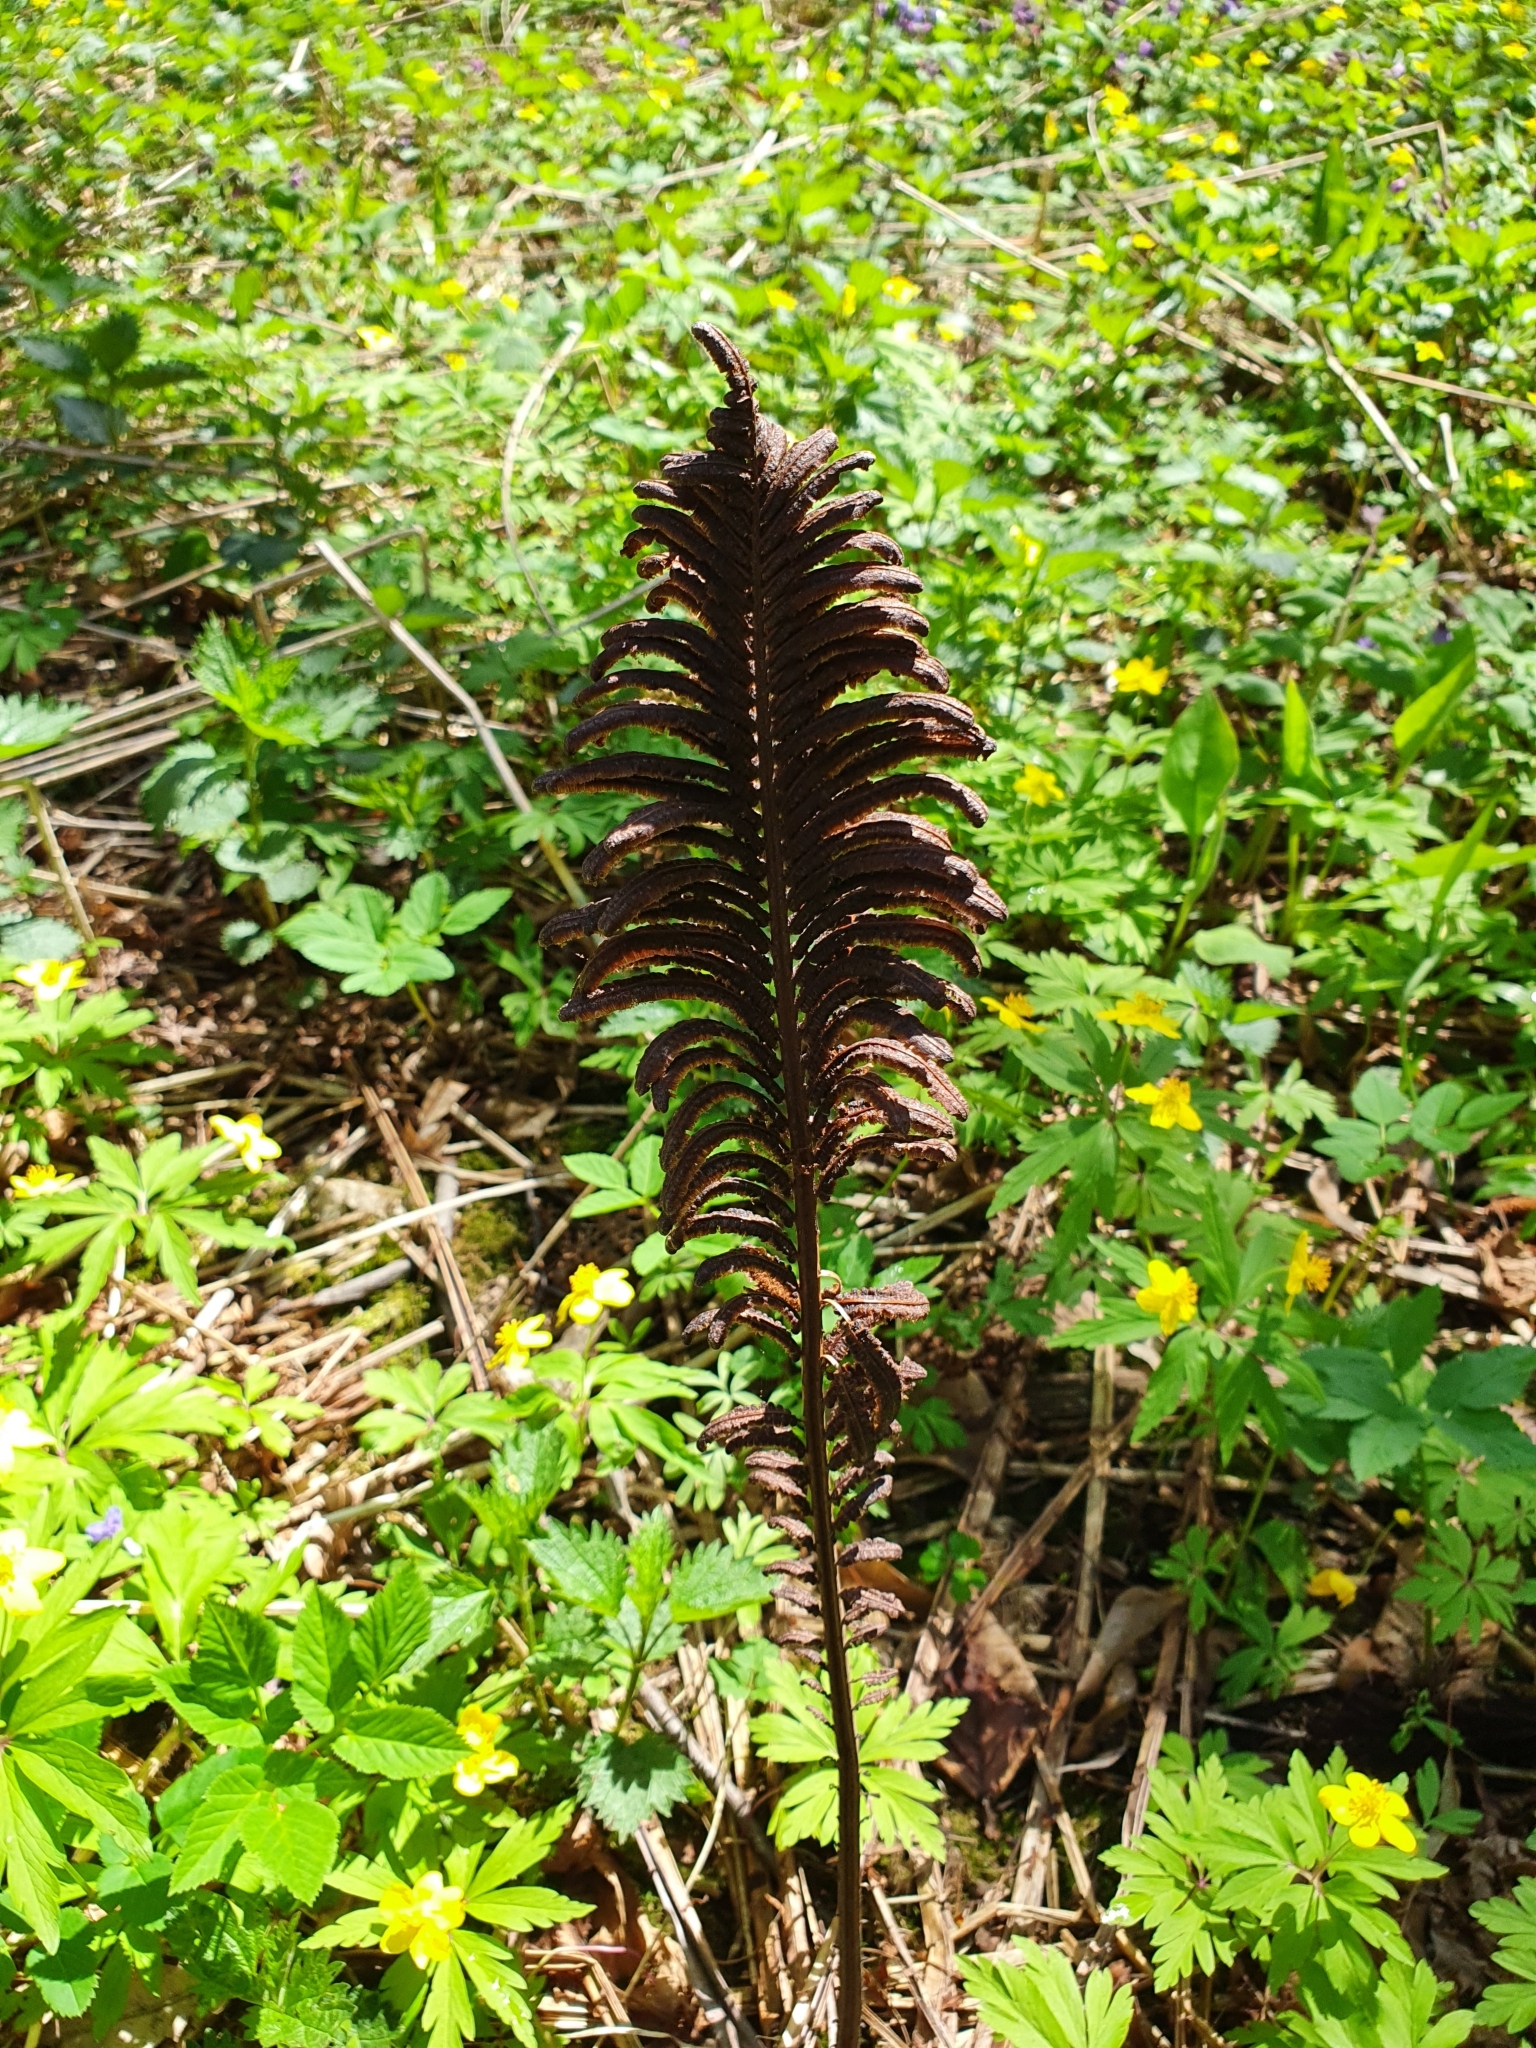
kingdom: Plantae
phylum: Tracheophyta
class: Polypodiopsida
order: Polypodiales
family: Onocleaceae
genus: Matteuccia
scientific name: Matteuccia struthiopteris
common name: Ostrich fern
